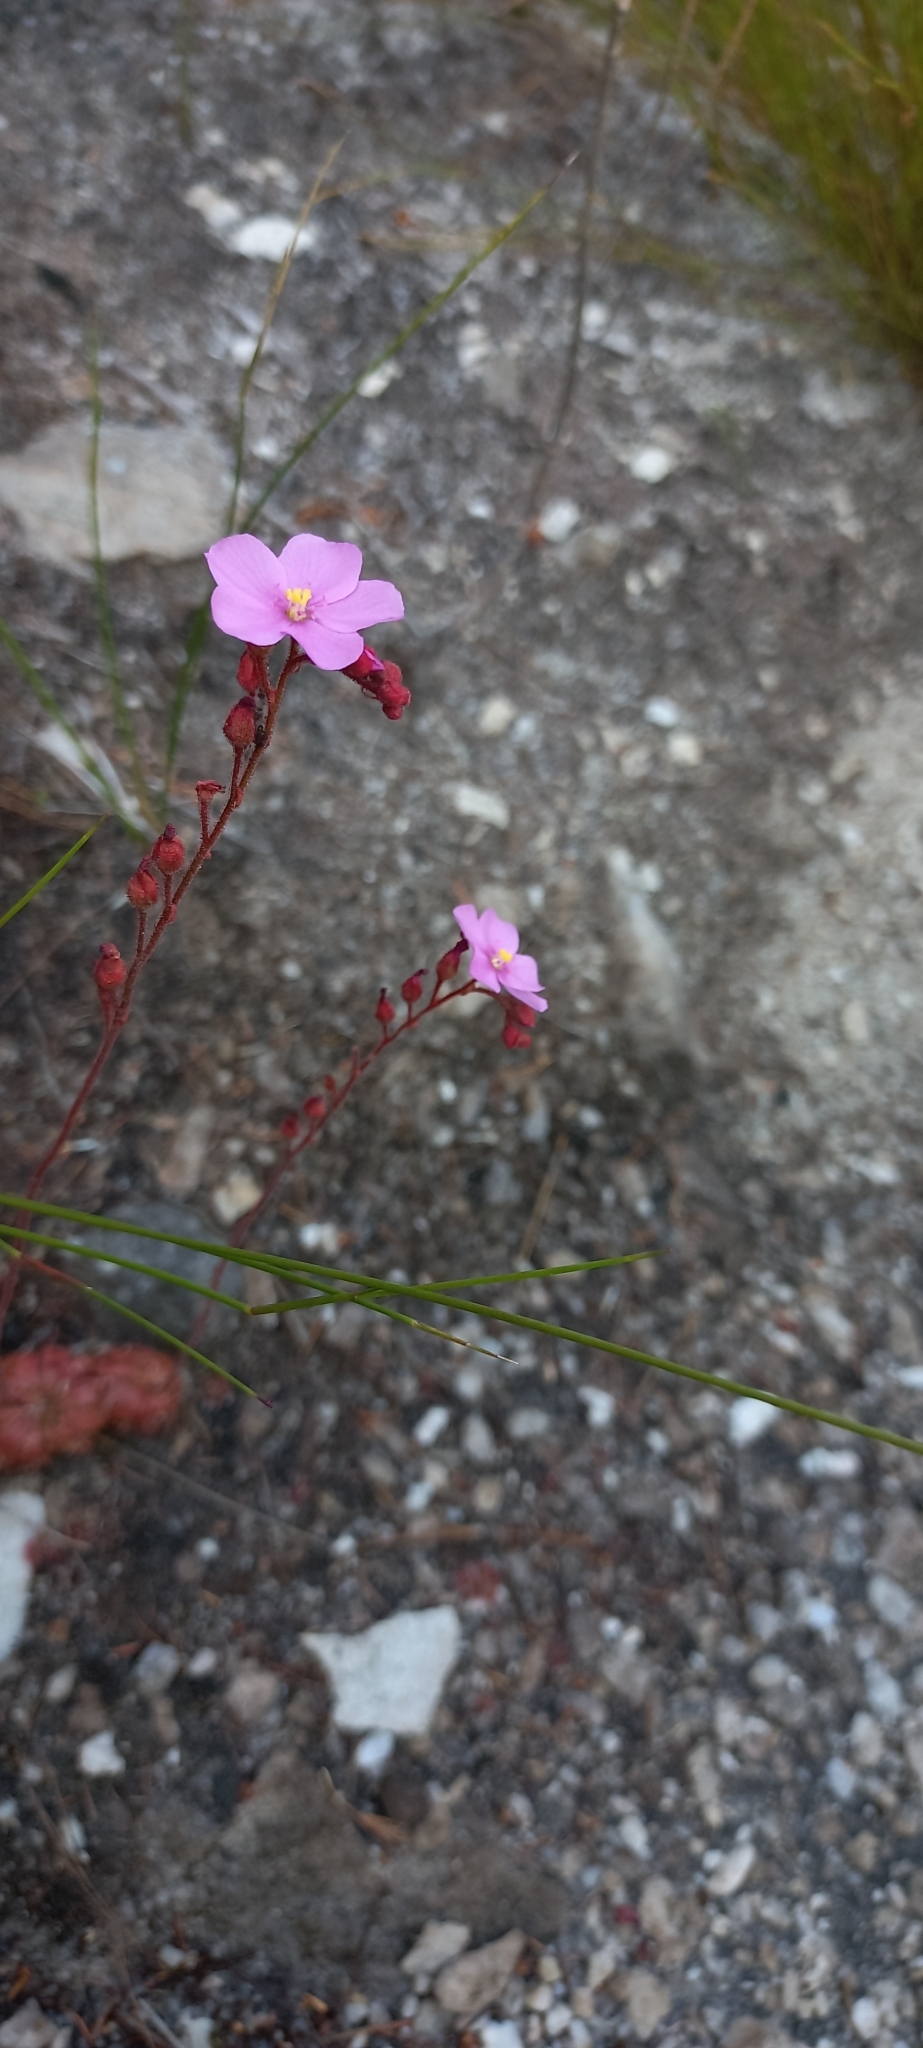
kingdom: Plantae
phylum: Tracheophyta
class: Magnoliopsida
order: Caryophyllales
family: Droseraceae
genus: Drosera
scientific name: Drosera cuneifolia
